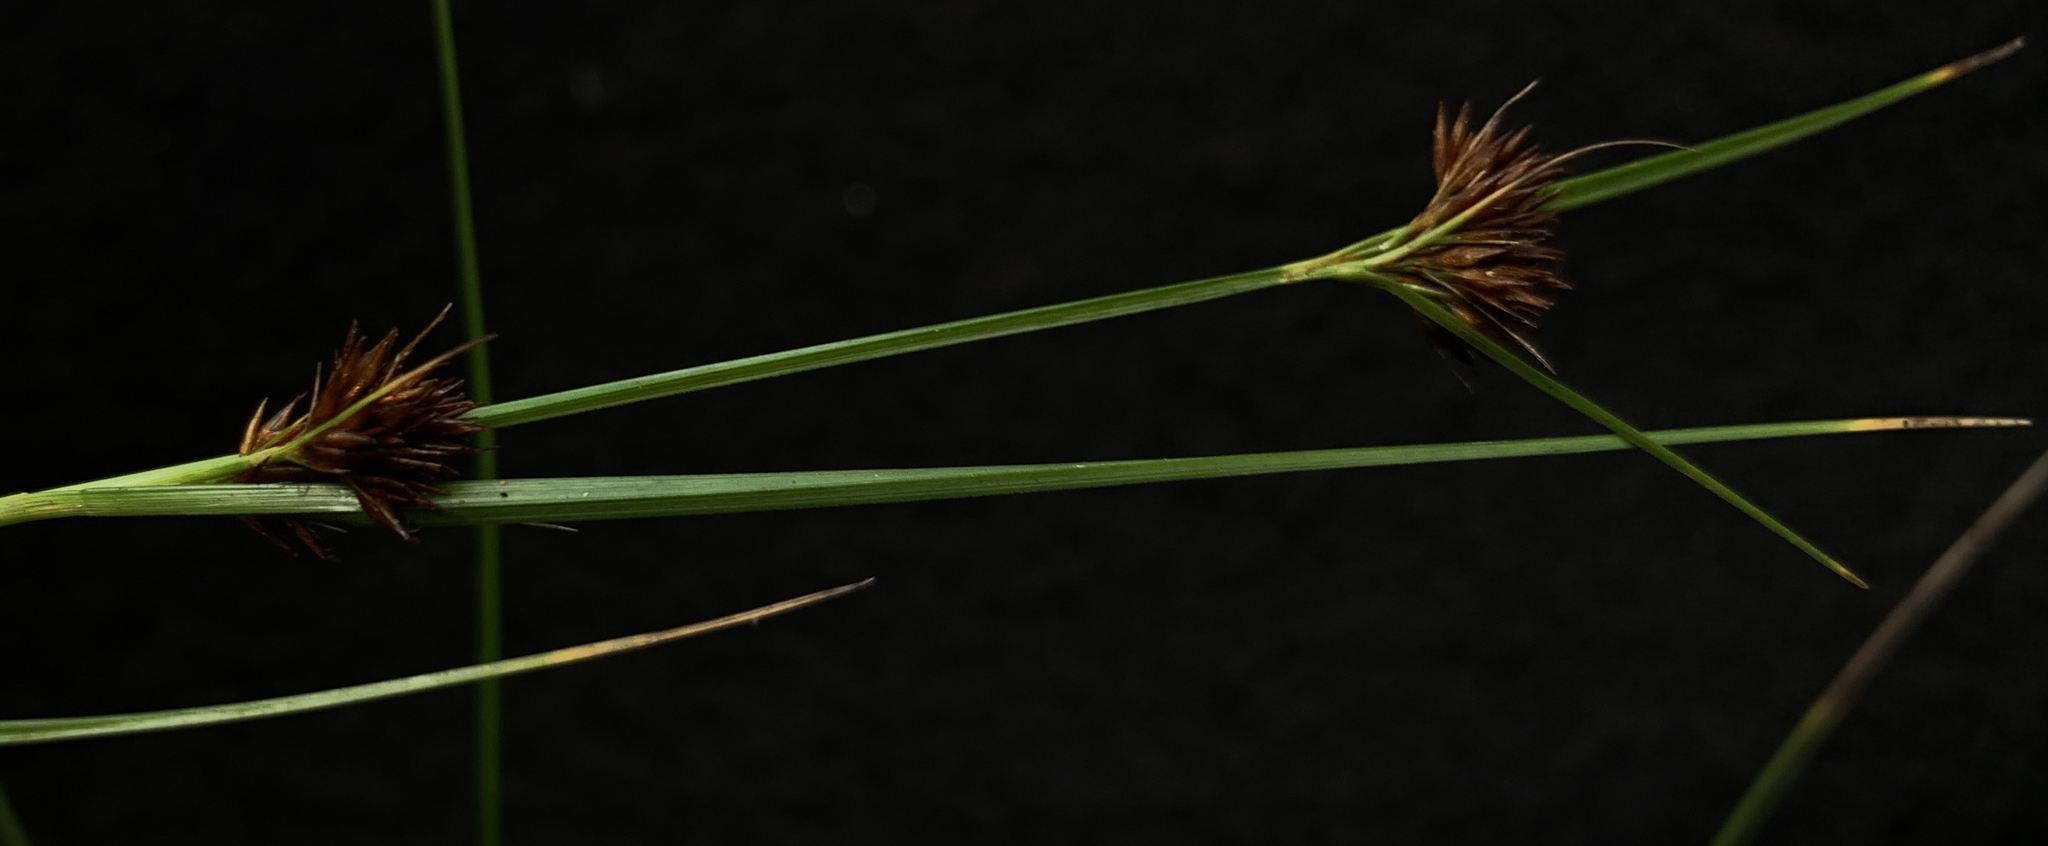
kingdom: Plantae
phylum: Tracheophyta
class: Liliopsida
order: Poales
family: Cyperaceae
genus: Rhynchospora
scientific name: Rhynchospora fascicularis
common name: Fascicled beak sedge
